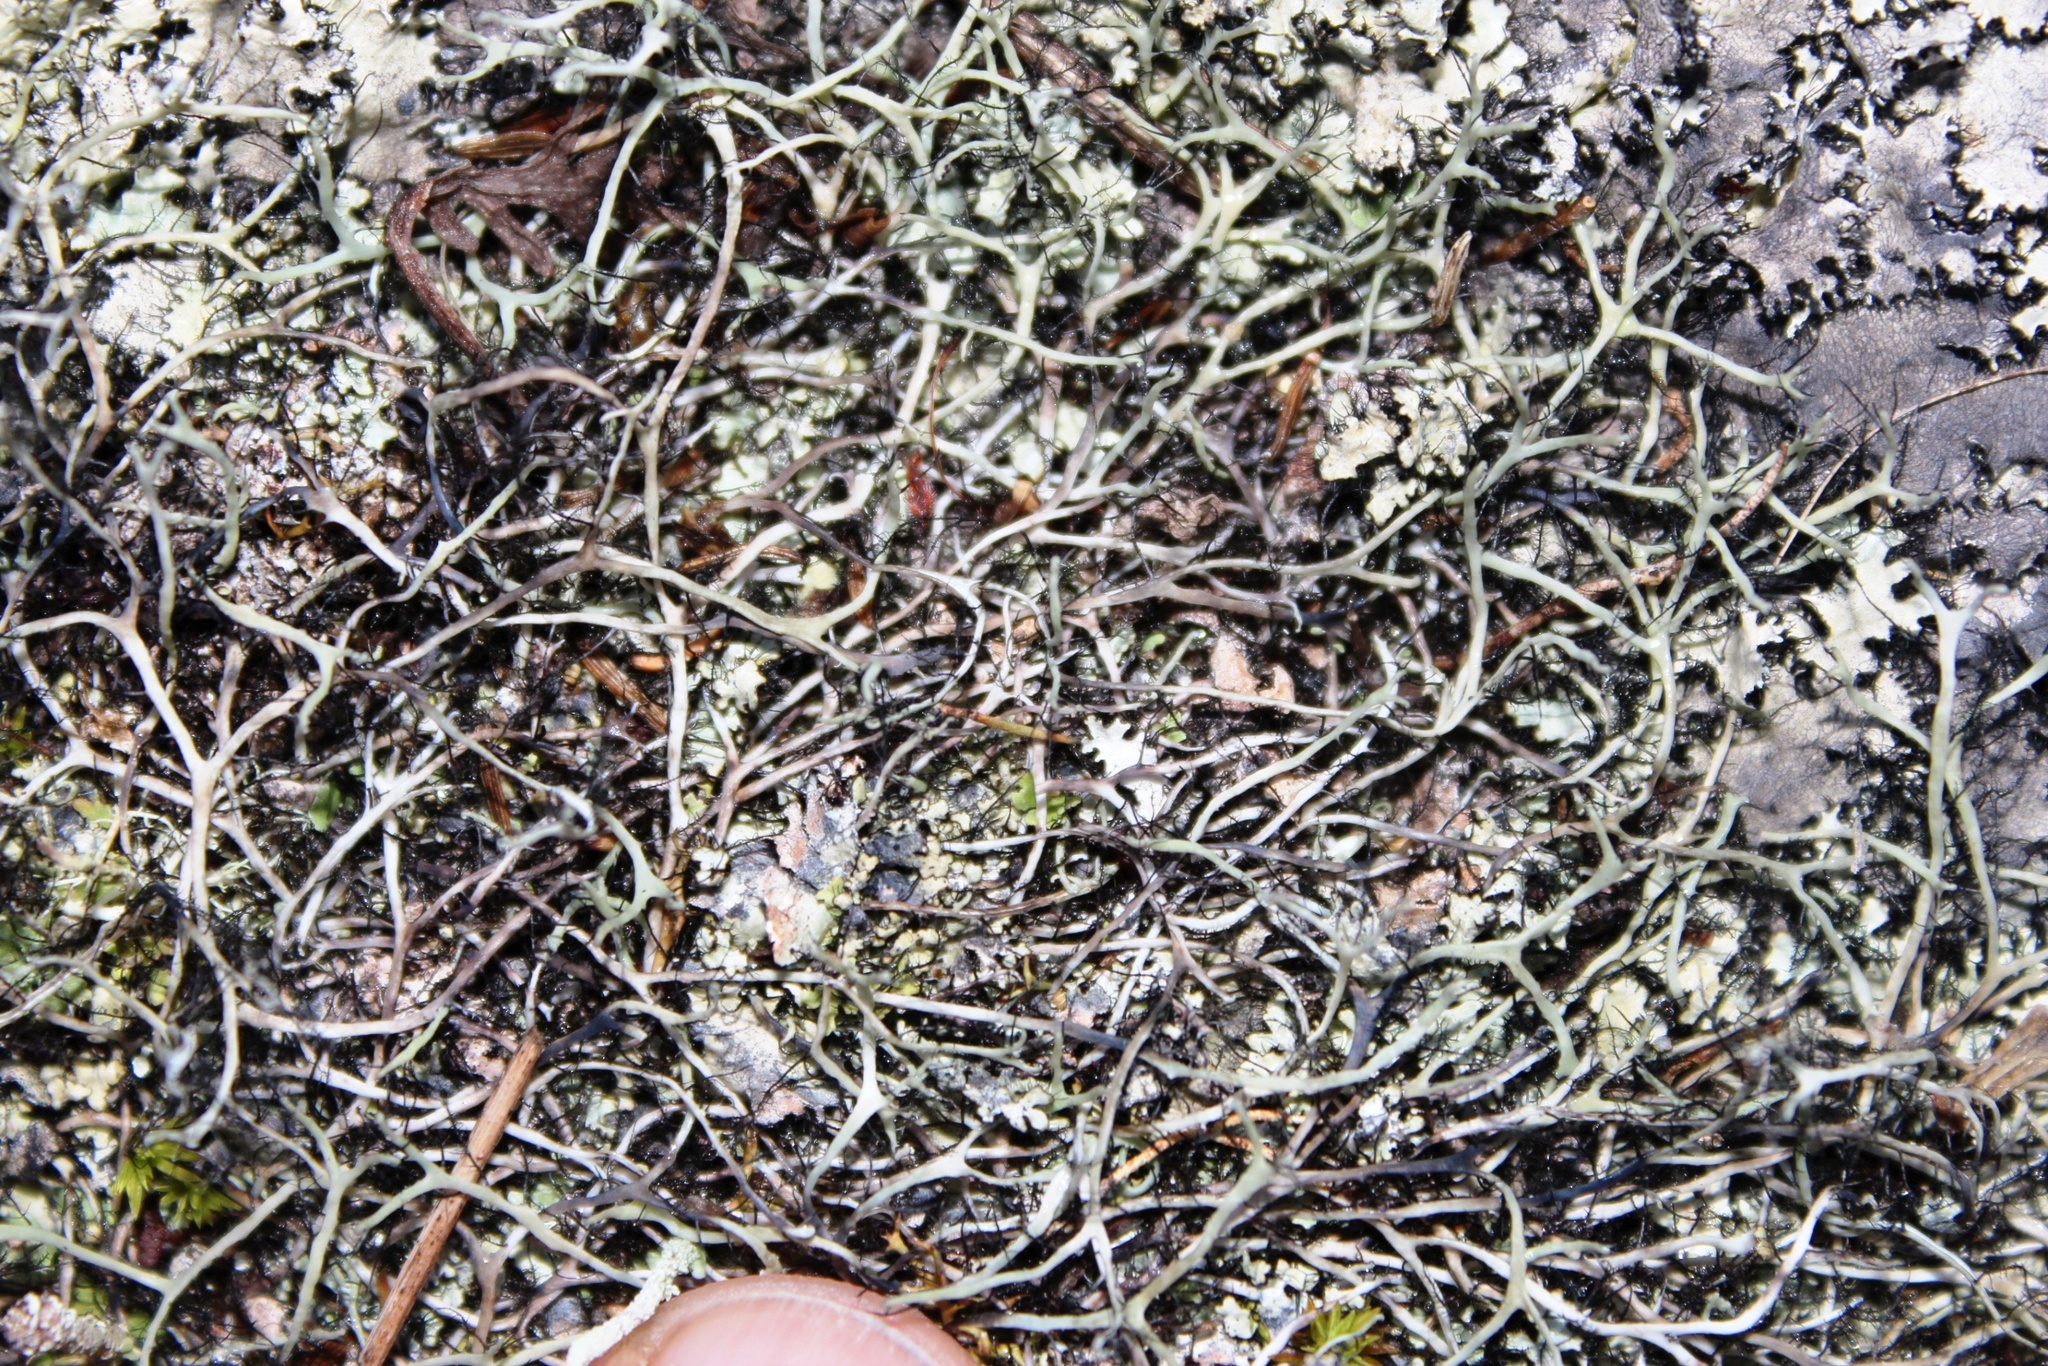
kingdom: Fungi
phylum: Ascomycota
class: Lecanoromycetes
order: Caliciales
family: Physciaceae
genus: Leucodermia
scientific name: Leucodermia leucomelos
